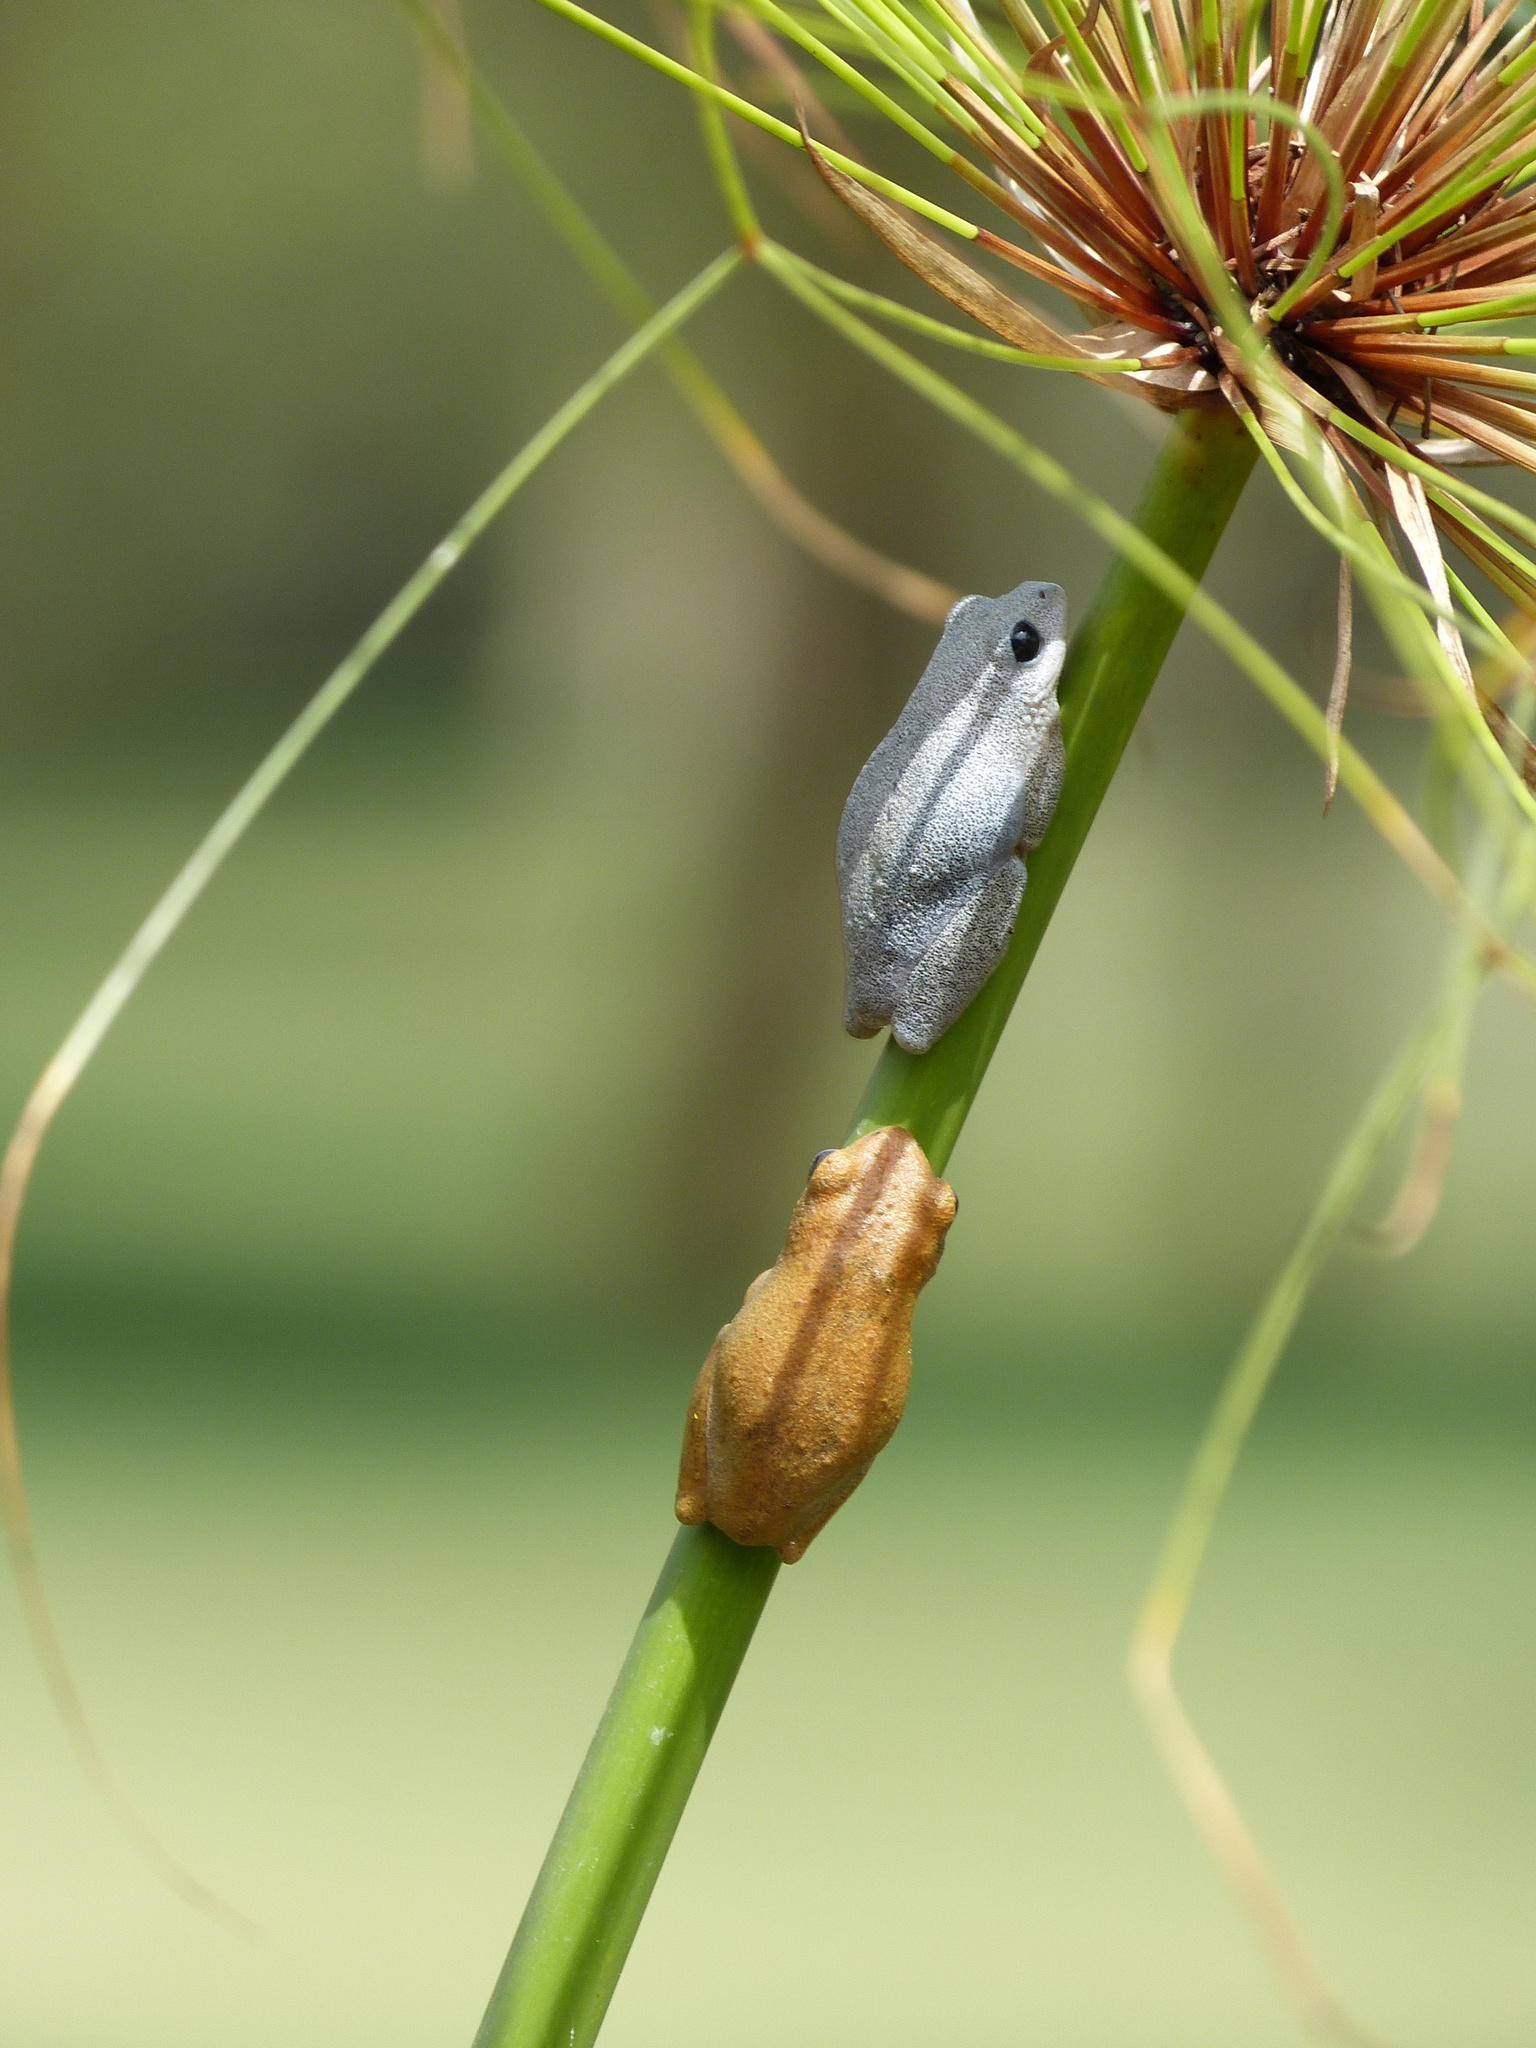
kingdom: Animalia
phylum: Chordata
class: Amphibia
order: Anura
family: Hyperoliidae
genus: Hyperolius
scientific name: Hyperolius viridiflavus
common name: Common reed frog
